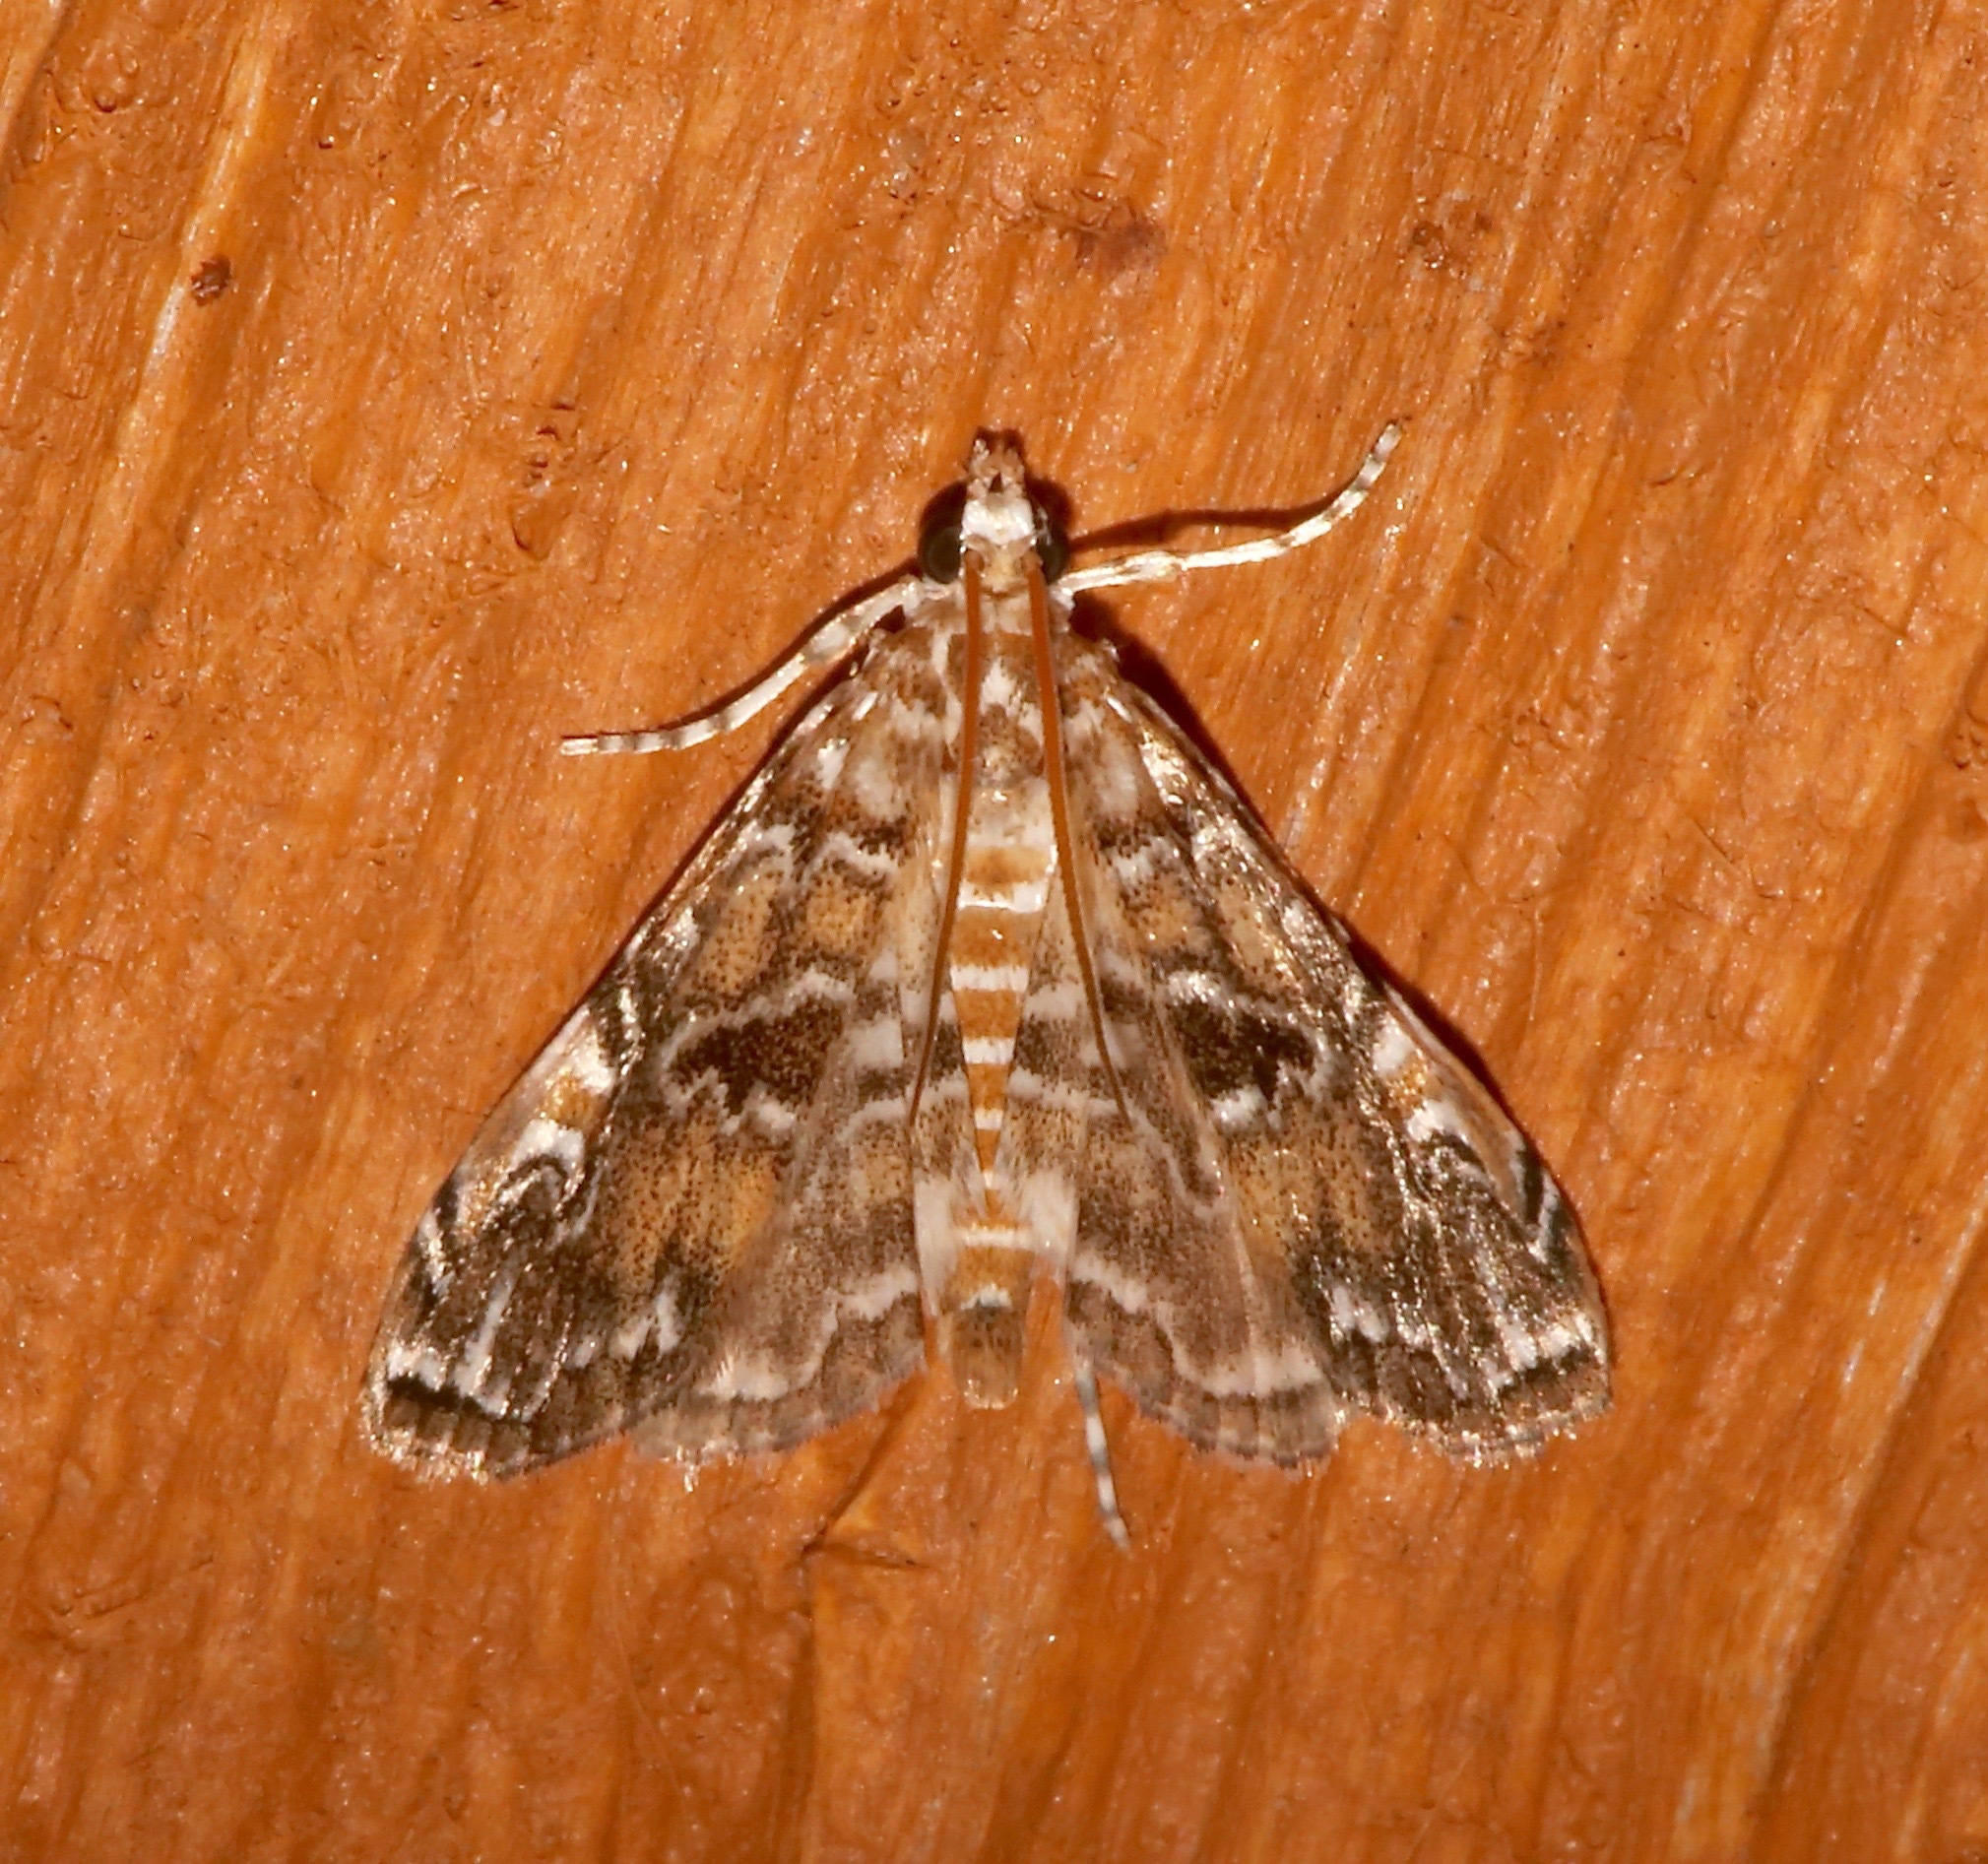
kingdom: Animalia
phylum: Arthropoda
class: Insecta
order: Lepidoptera
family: Crambidae
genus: Elophila
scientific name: Elophila gyralis
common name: Waterlily borer moth
